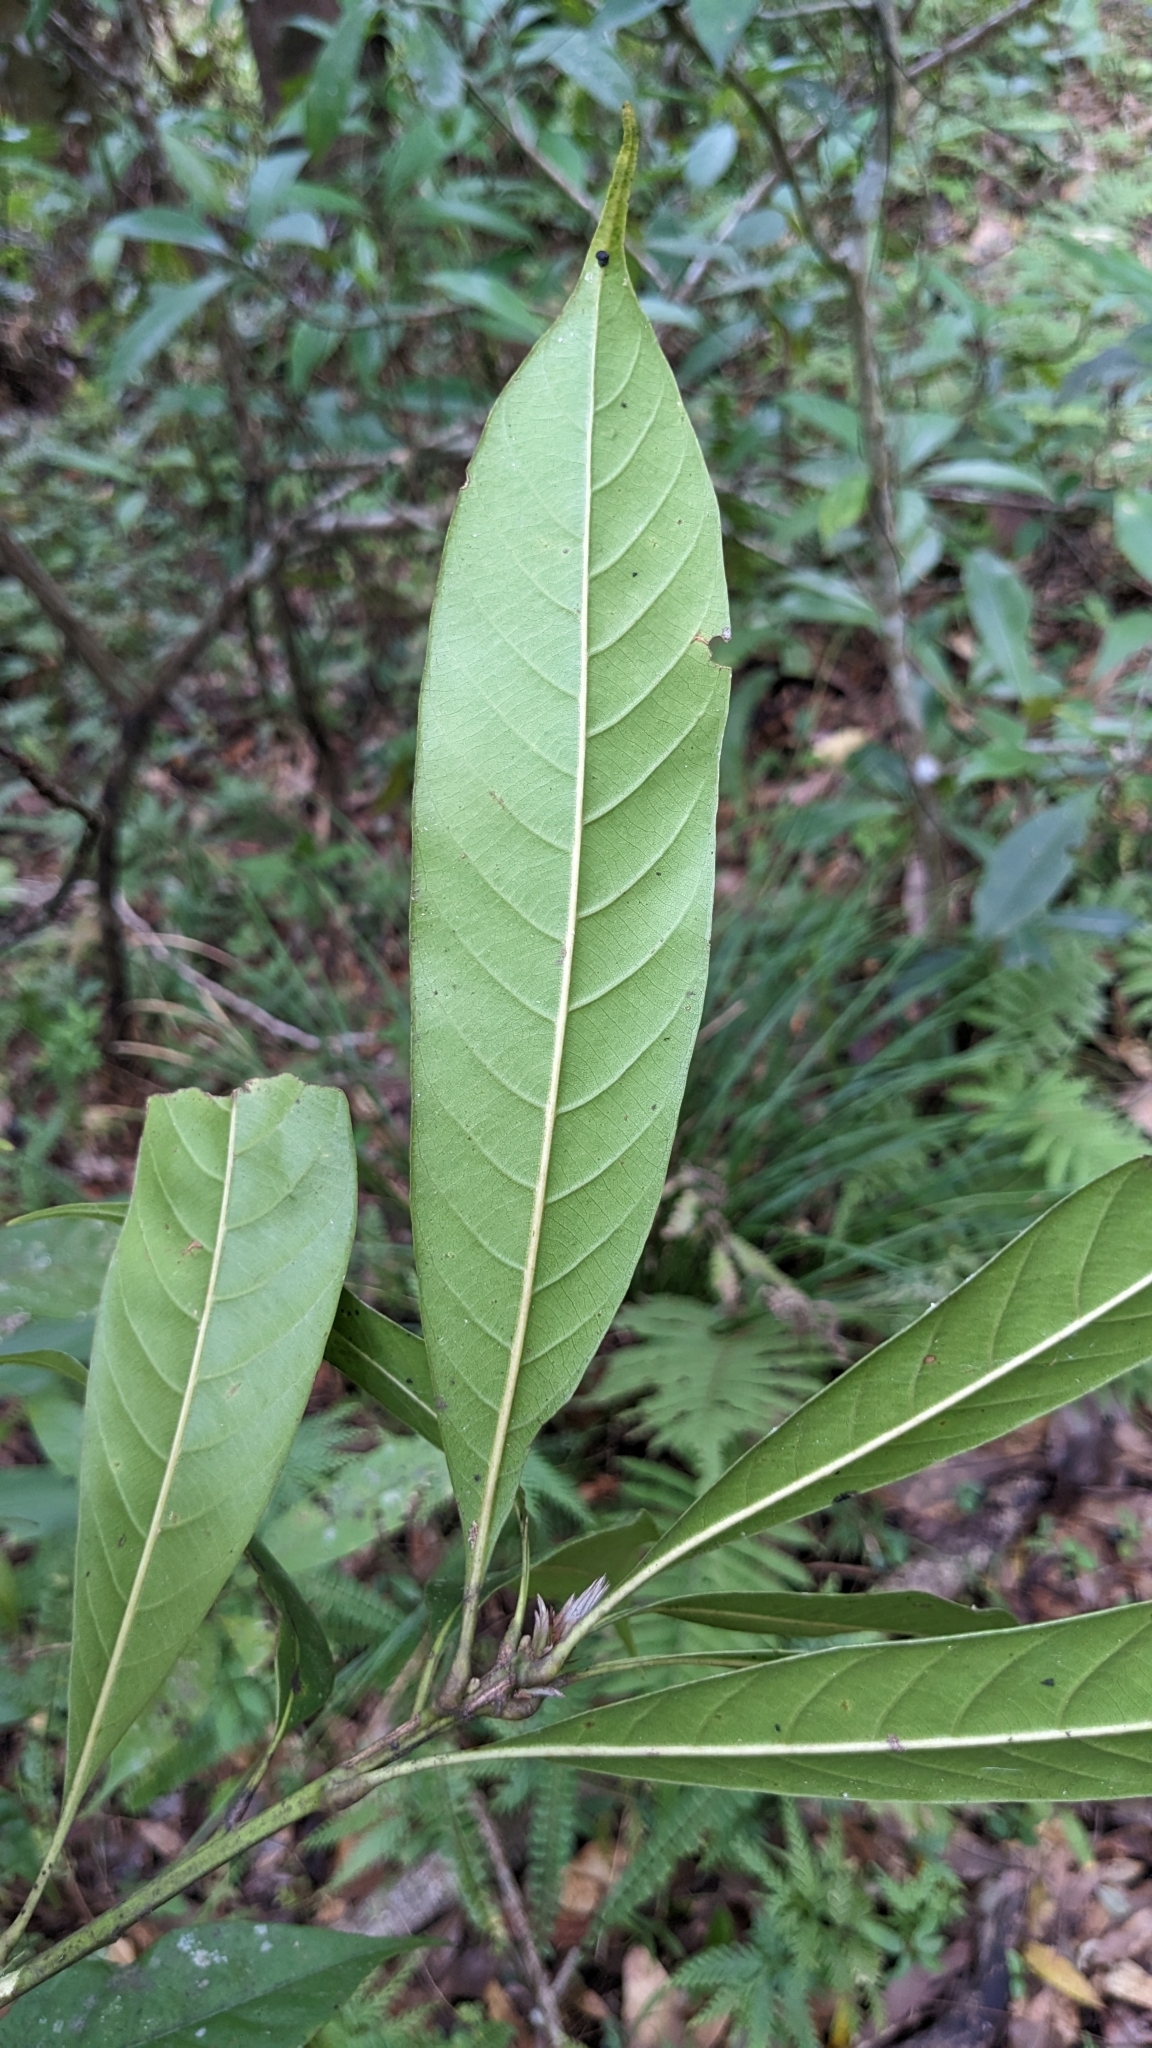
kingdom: Plantae
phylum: Tracheophyta
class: Magnoliopsida
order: Fagales
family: Fagaceae
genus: Lithocarpus
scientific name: Lithocarpus brevicaudatus
